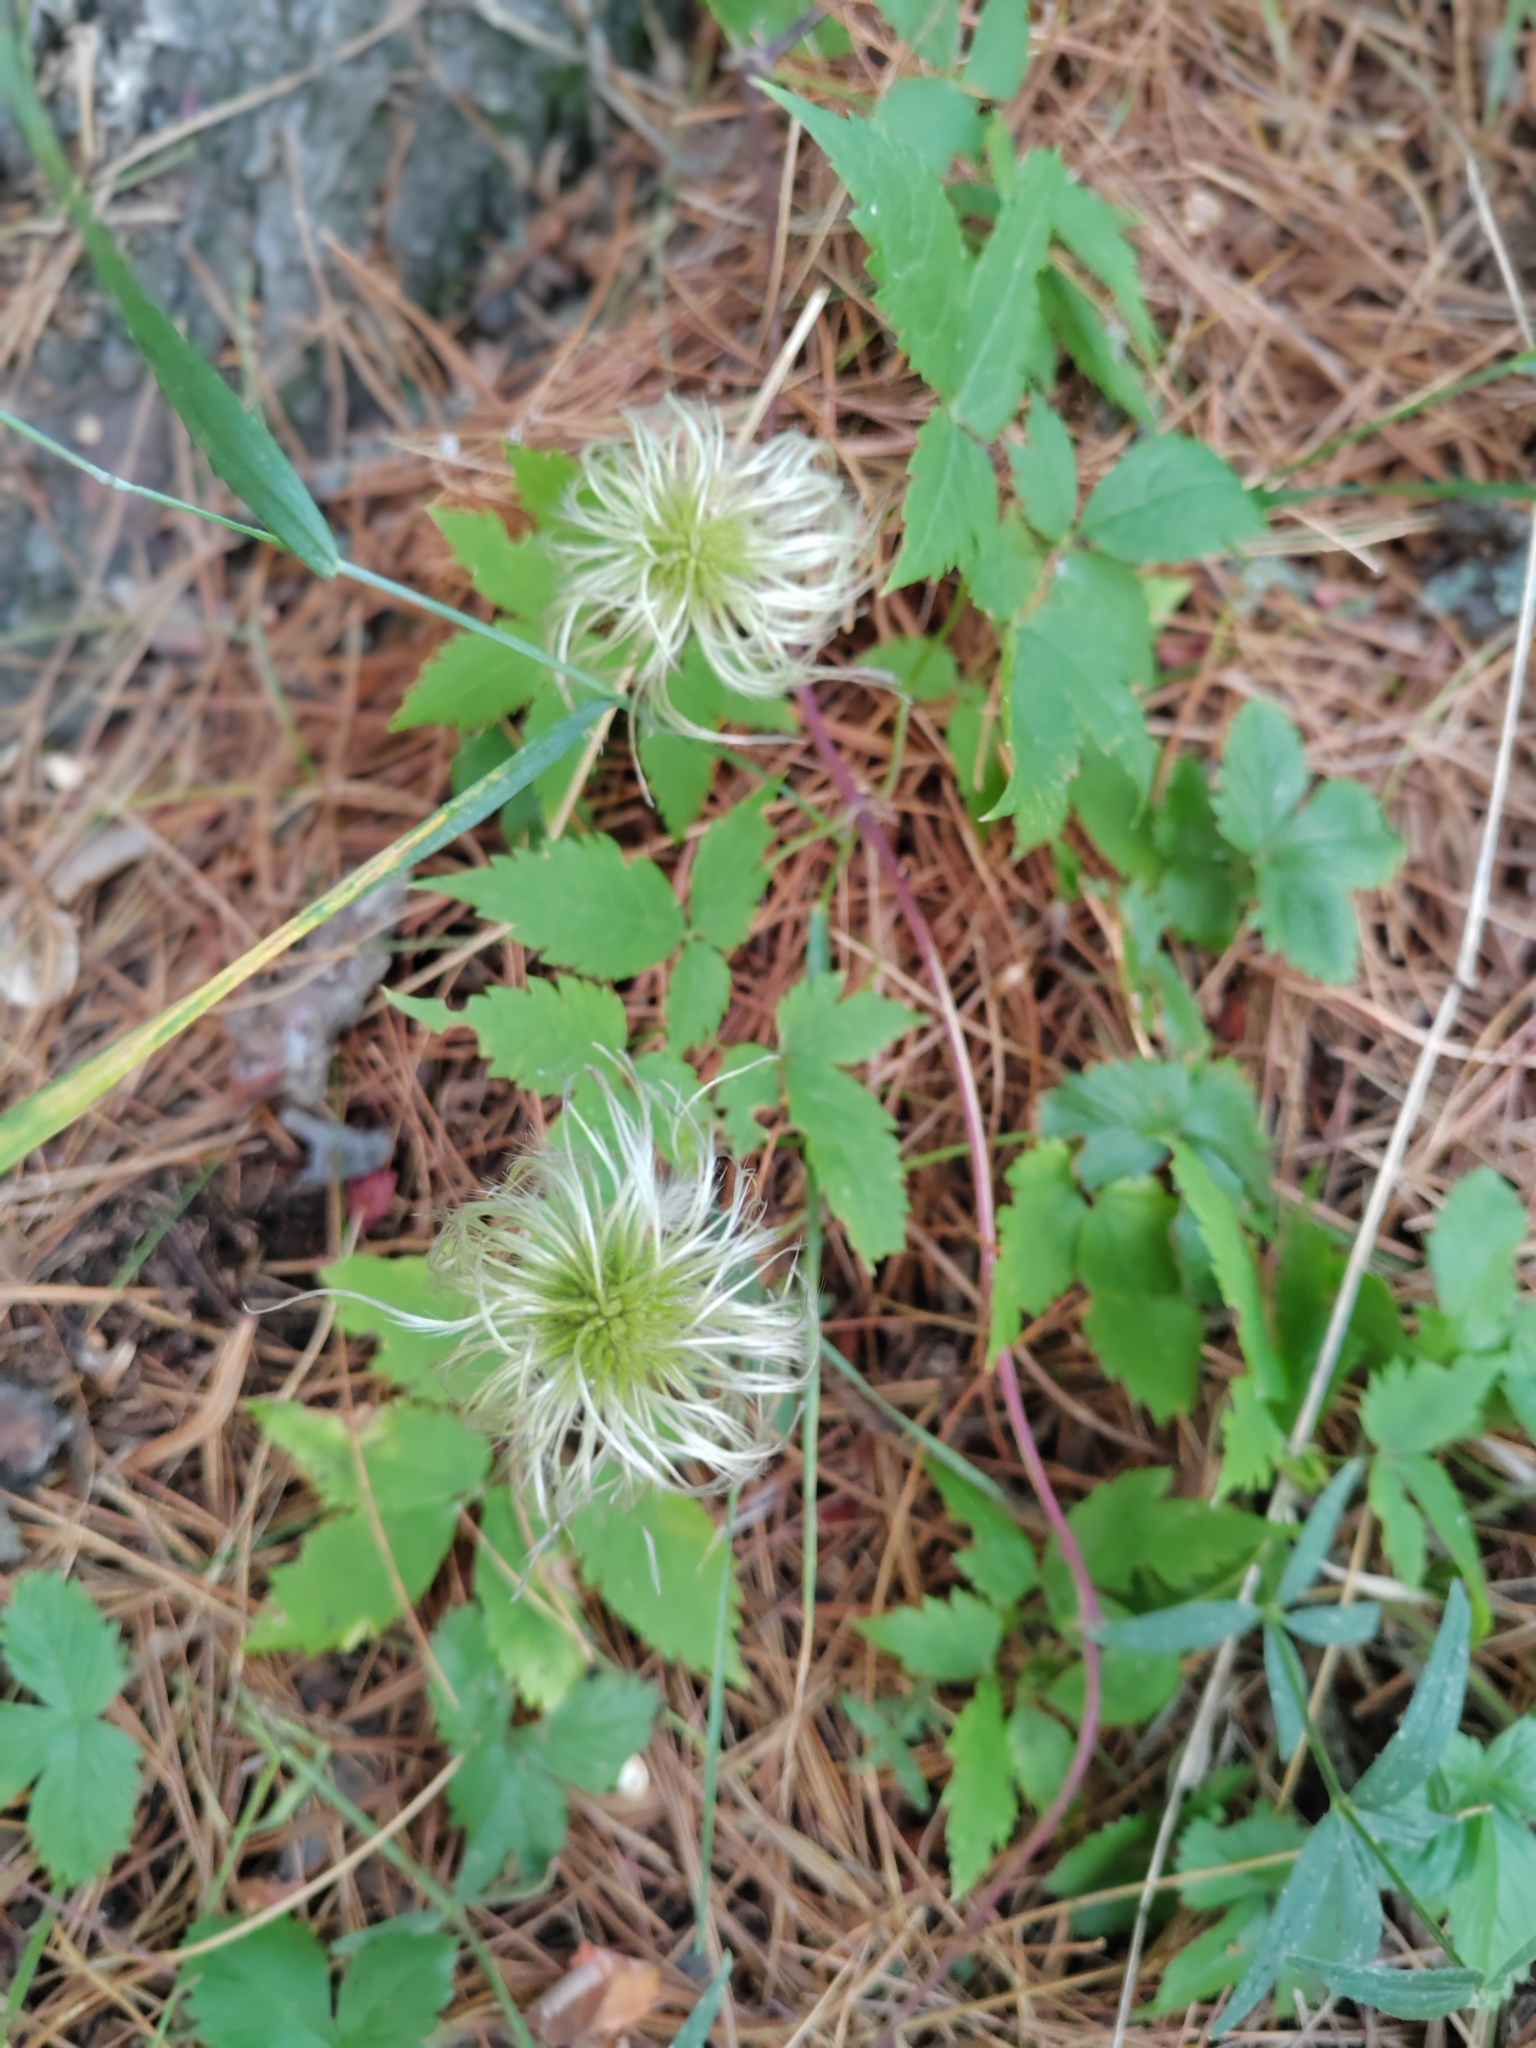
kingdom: Plantae
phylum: Tracheophyta
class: Magnoliopsida
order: Ranunculales
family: Ranunculaceae
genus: Clematis
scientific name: Clematis sibirica
